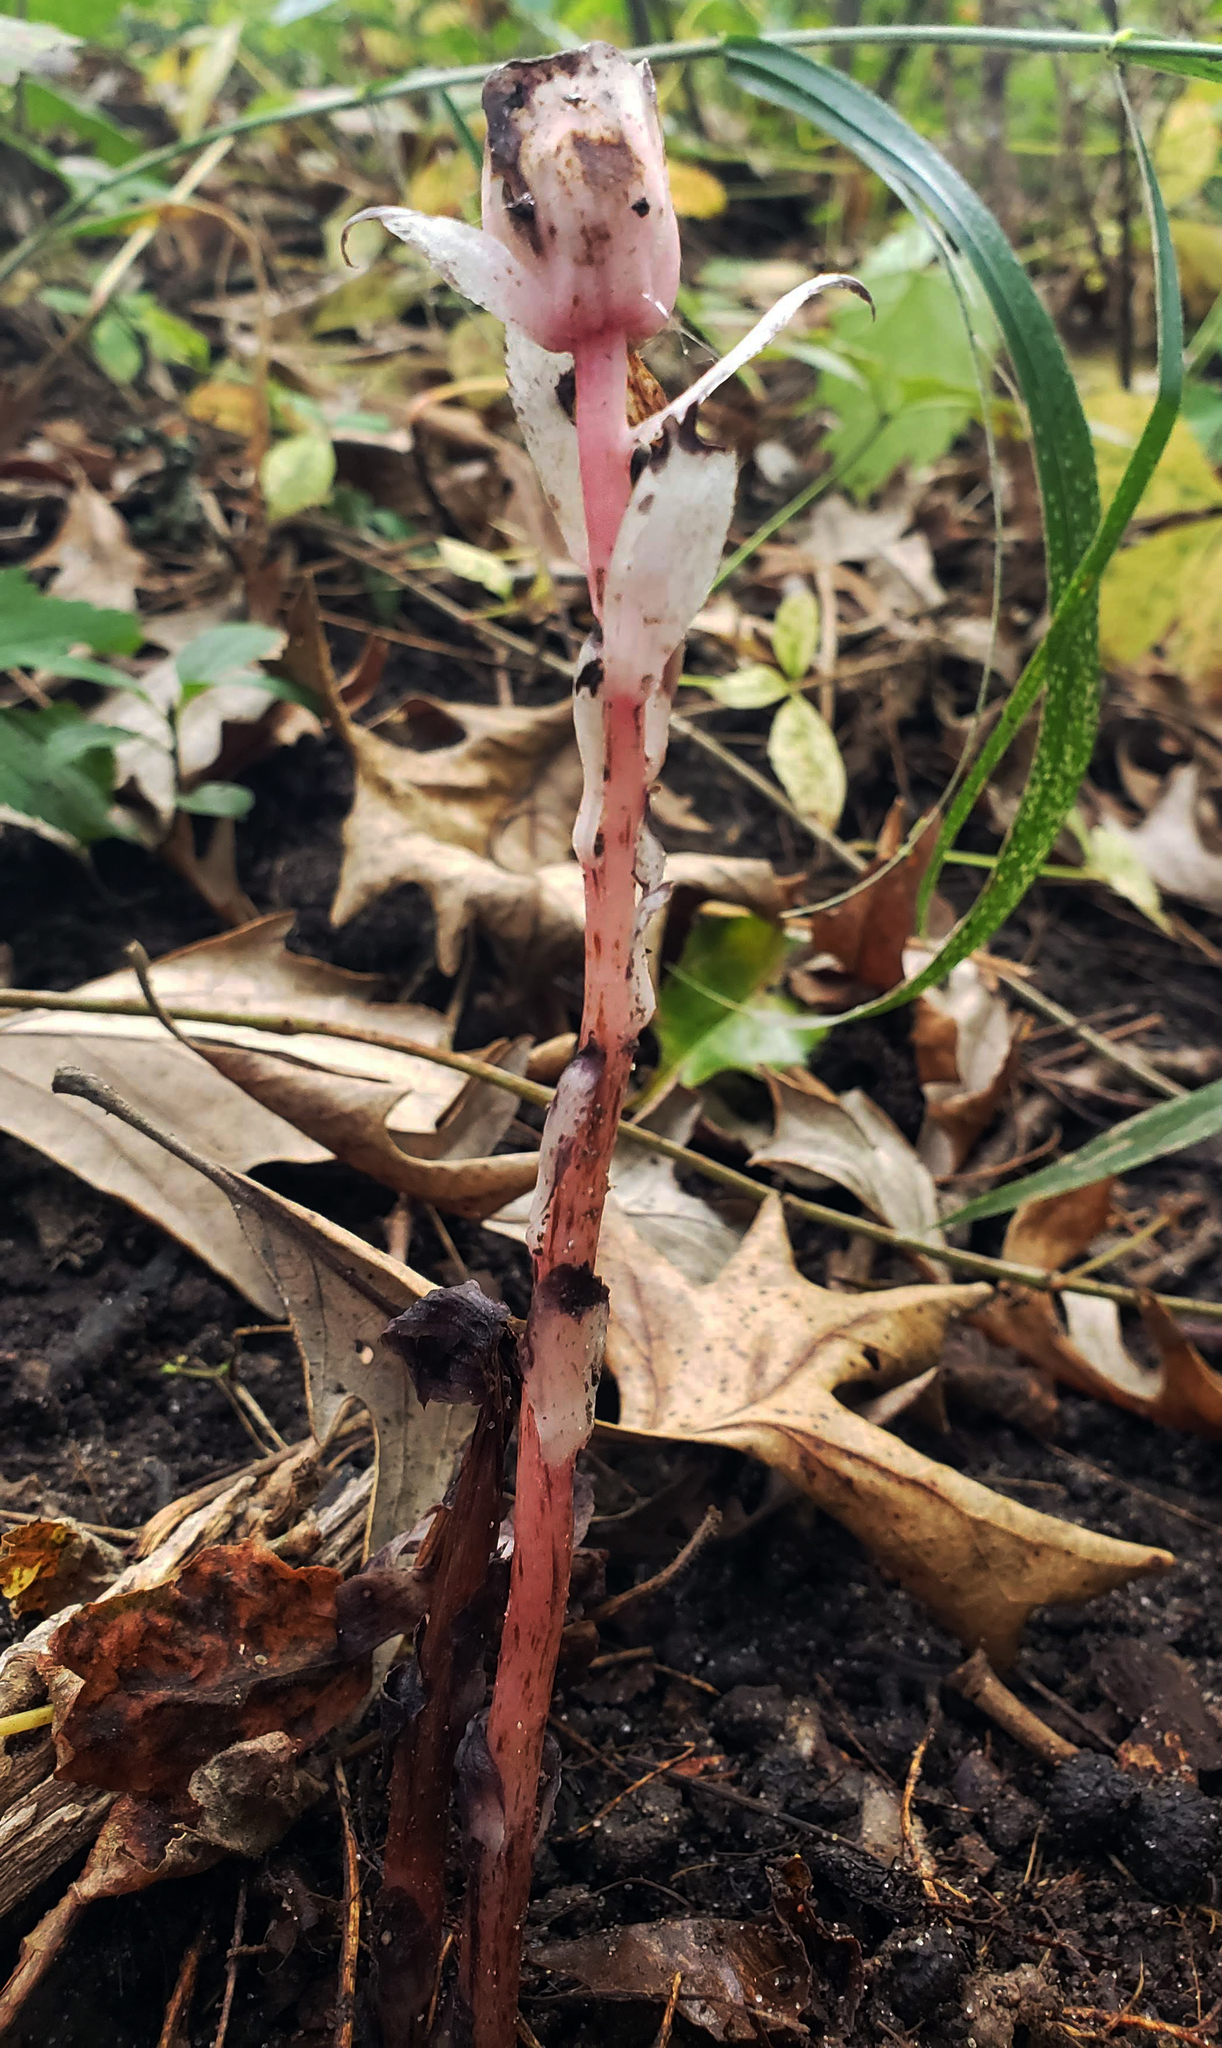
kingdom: Plantae
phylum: Tracheophyta
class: Magnoliopsida
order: Ericales
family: Ericaceae
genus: Monotropa
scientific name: Monotropa uniflora
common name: Convulsion root
